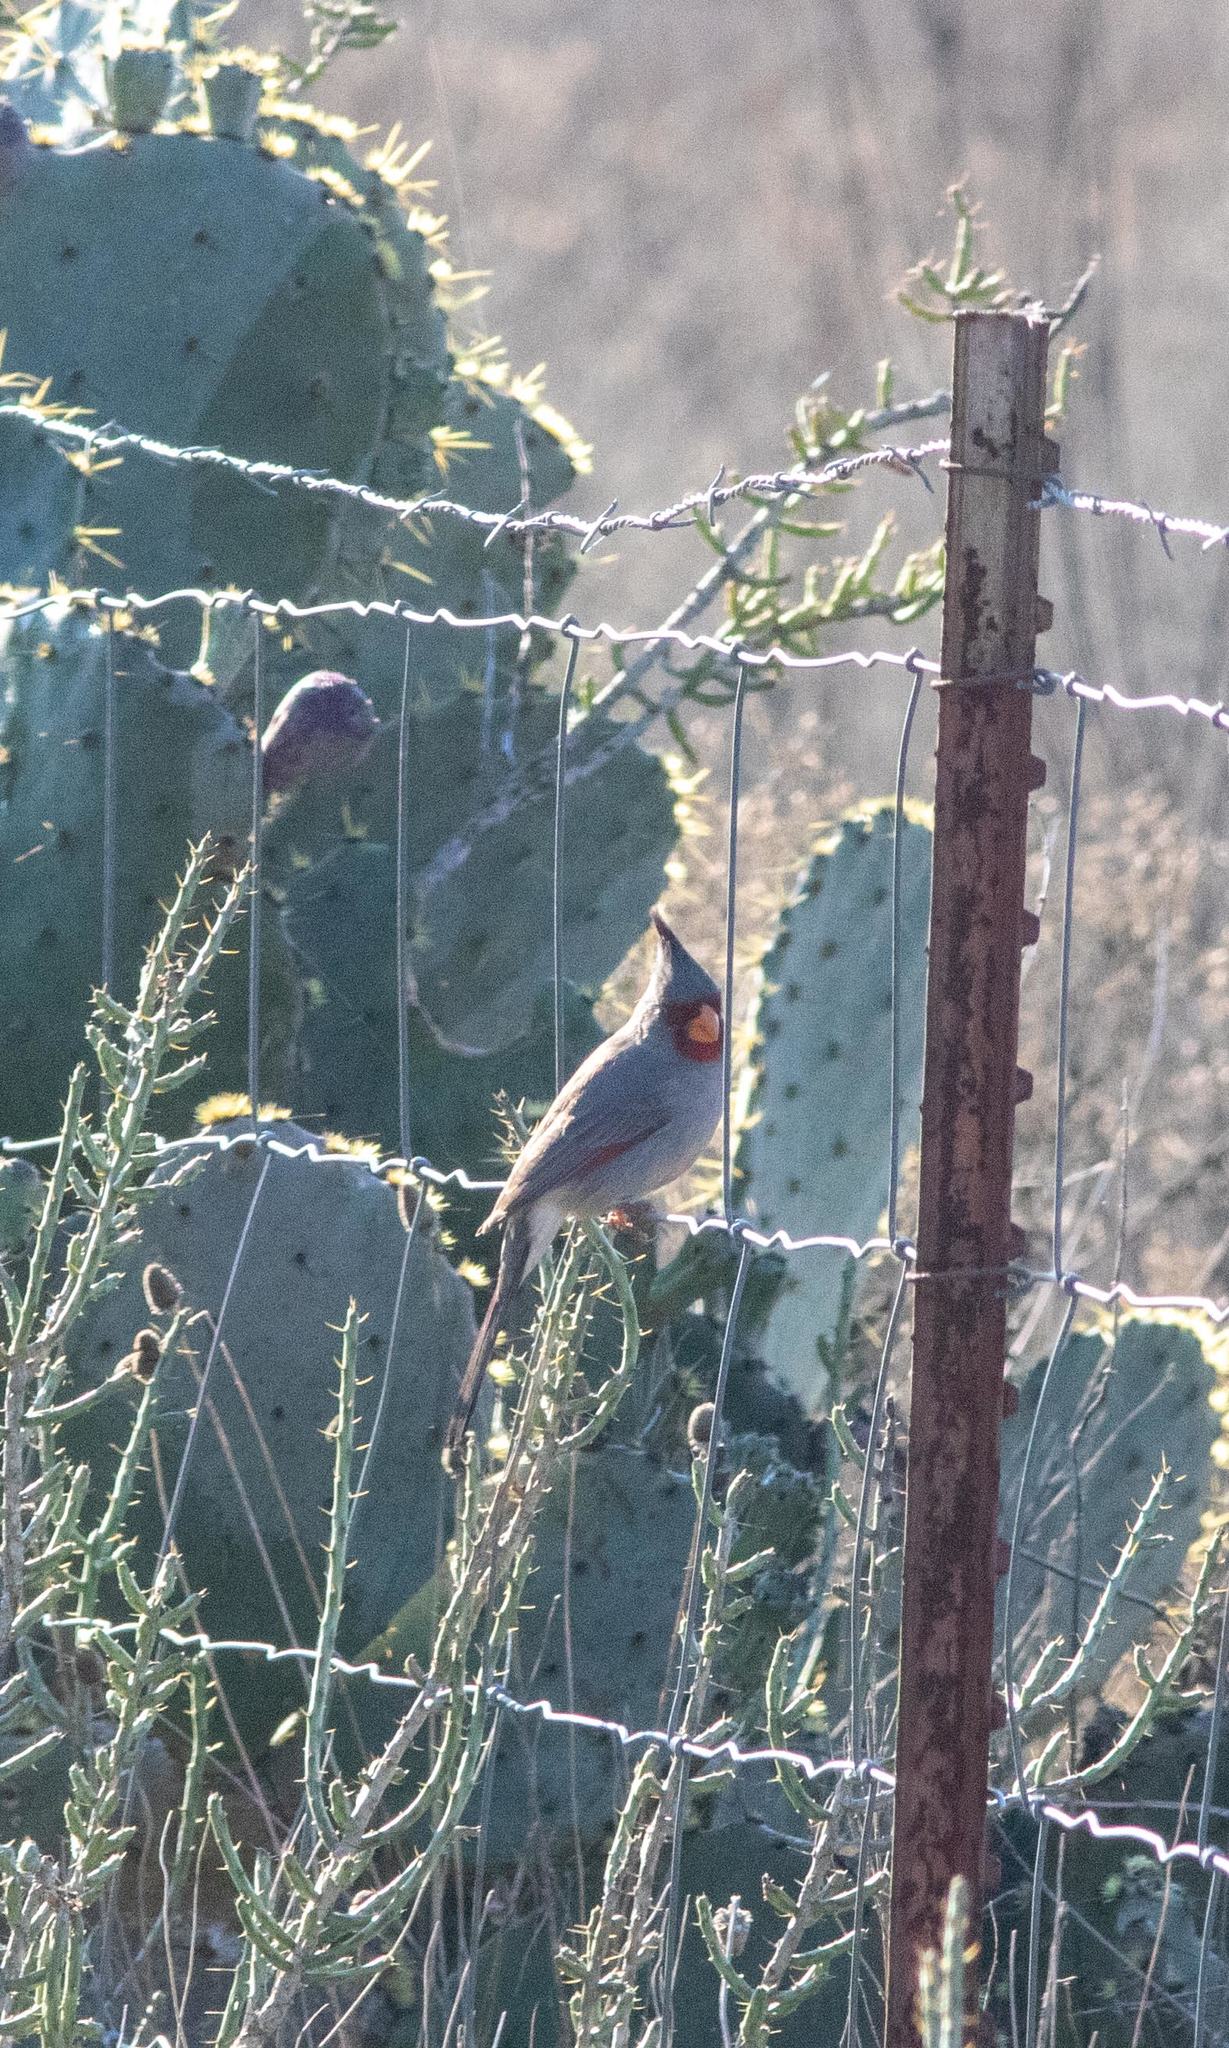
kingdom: Animalia
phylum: Chordata
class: Aves
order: Passeriformes
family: Cardinalidae
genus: Cardinalis
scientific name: Cardinalis sinuatus
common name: Pyrrhuloxia
